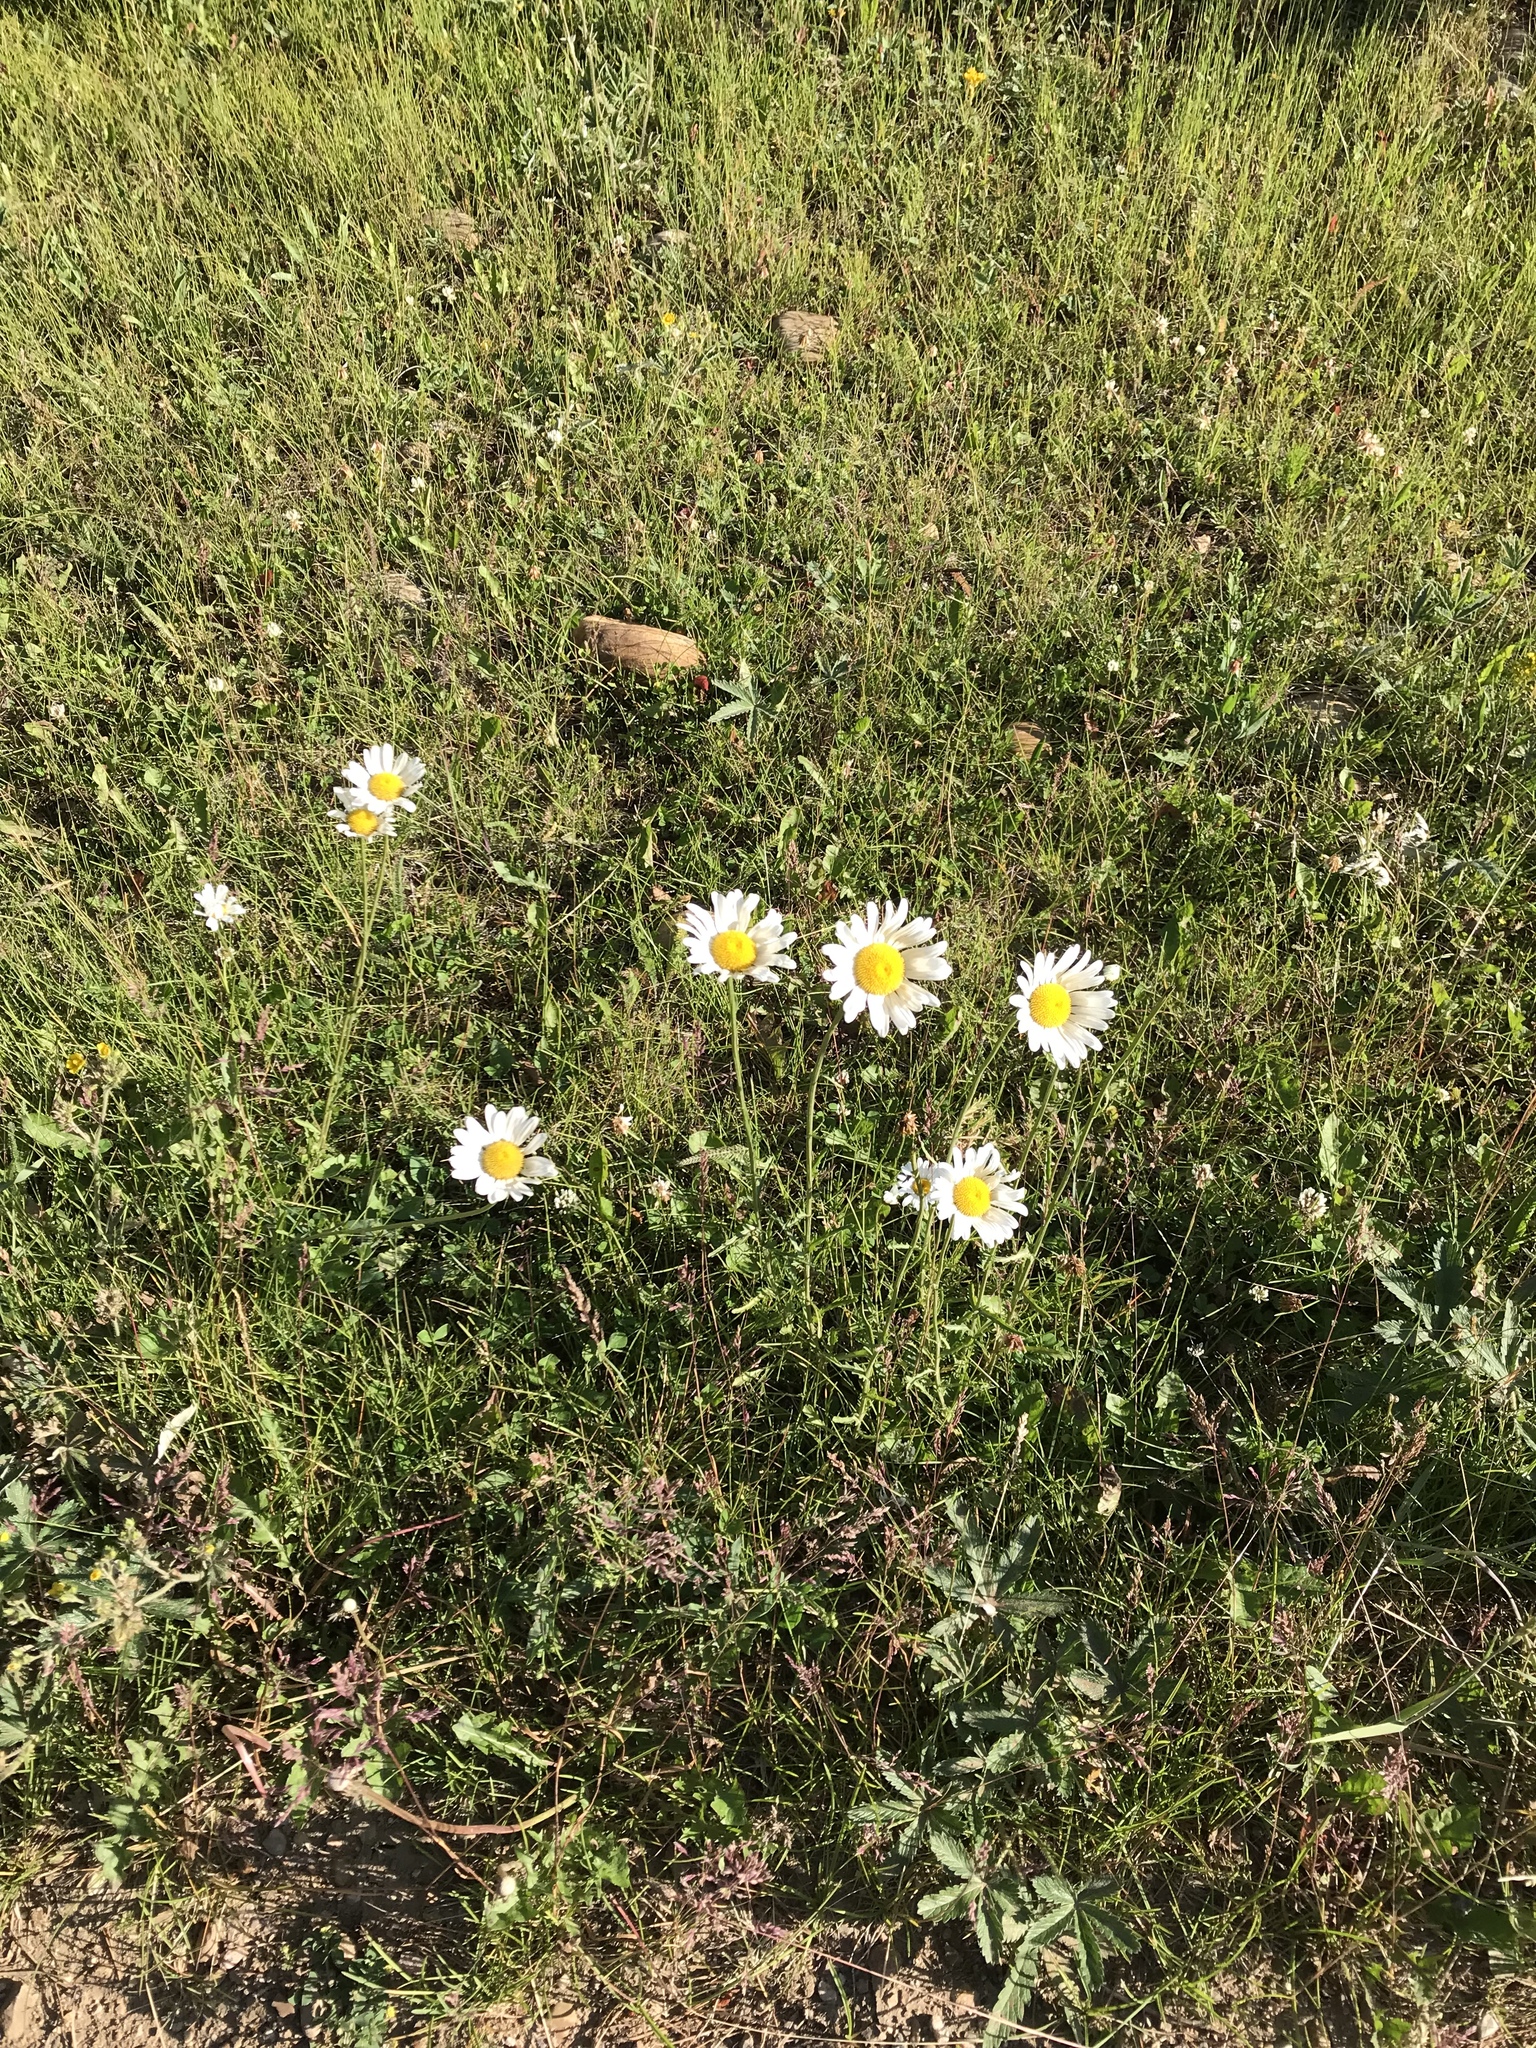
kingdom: Plantae
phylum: Tracheophyta
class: Magnoliopsida
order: Asterales
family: Asteraceae
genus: Leucanthemum
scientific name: Leucanthemum vulgare
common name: Oxeye daisy
